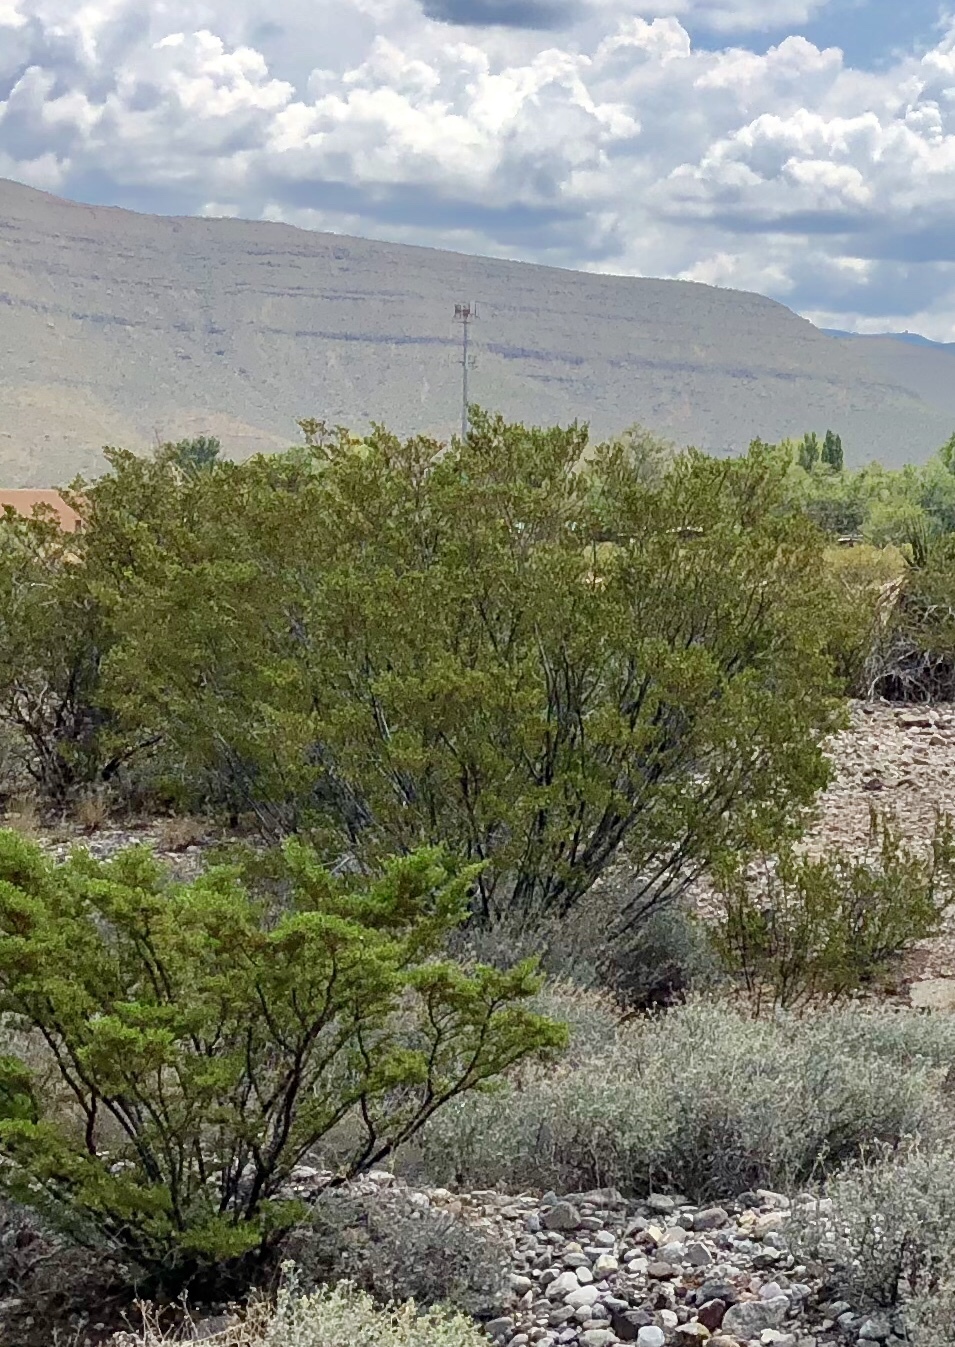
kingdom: Plantae
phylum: Tracheophyta
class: Magnoliopsida
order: Zygophyllales
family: Zygophyllaceae
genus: Larrea
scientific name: Larrea tridentata
